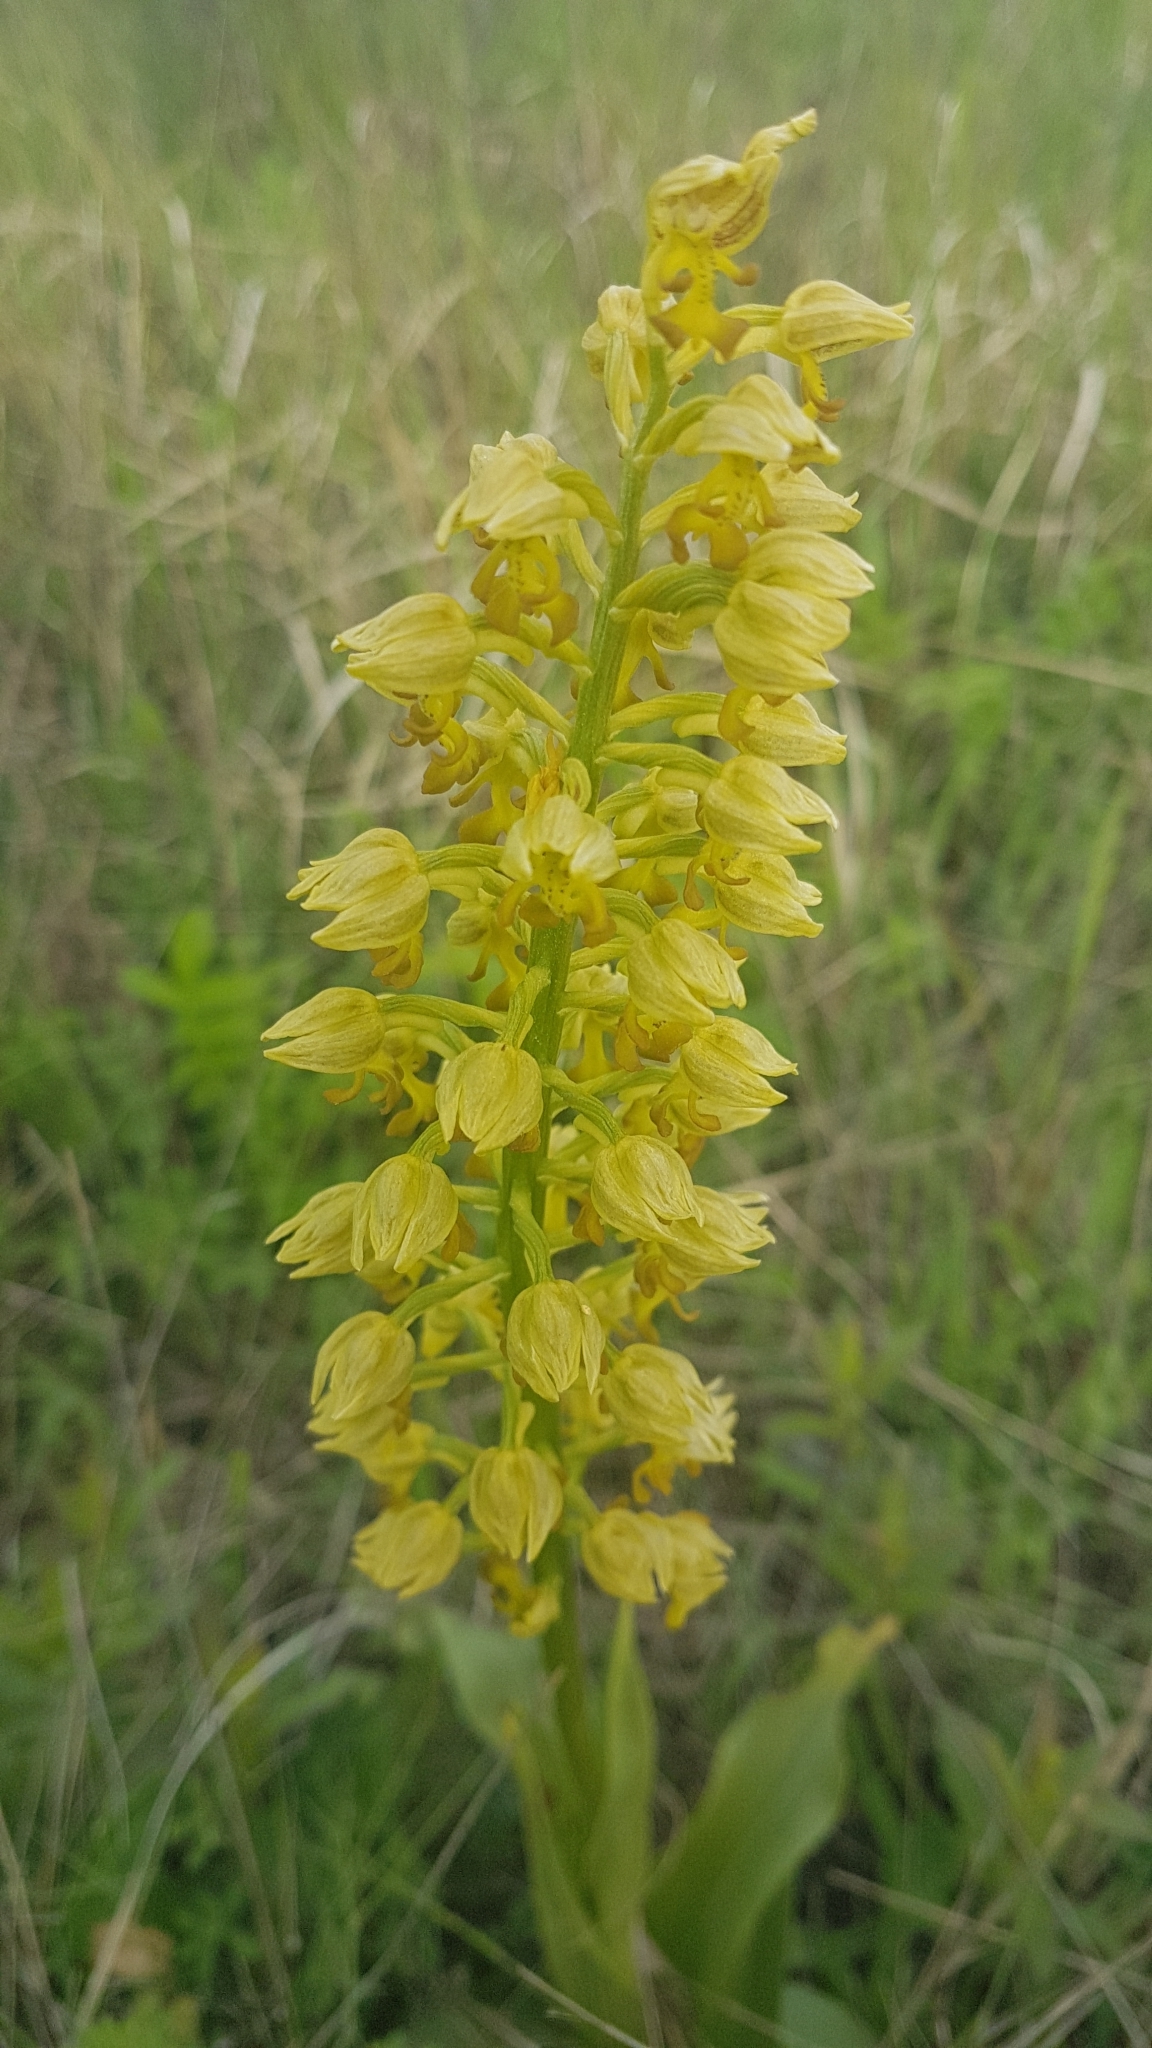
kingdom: Plantae
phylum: Tracheophyta
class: Liliopsida
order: Asparagales
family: Orchidaceae
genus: Orchis
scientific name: Orchis punctulata
